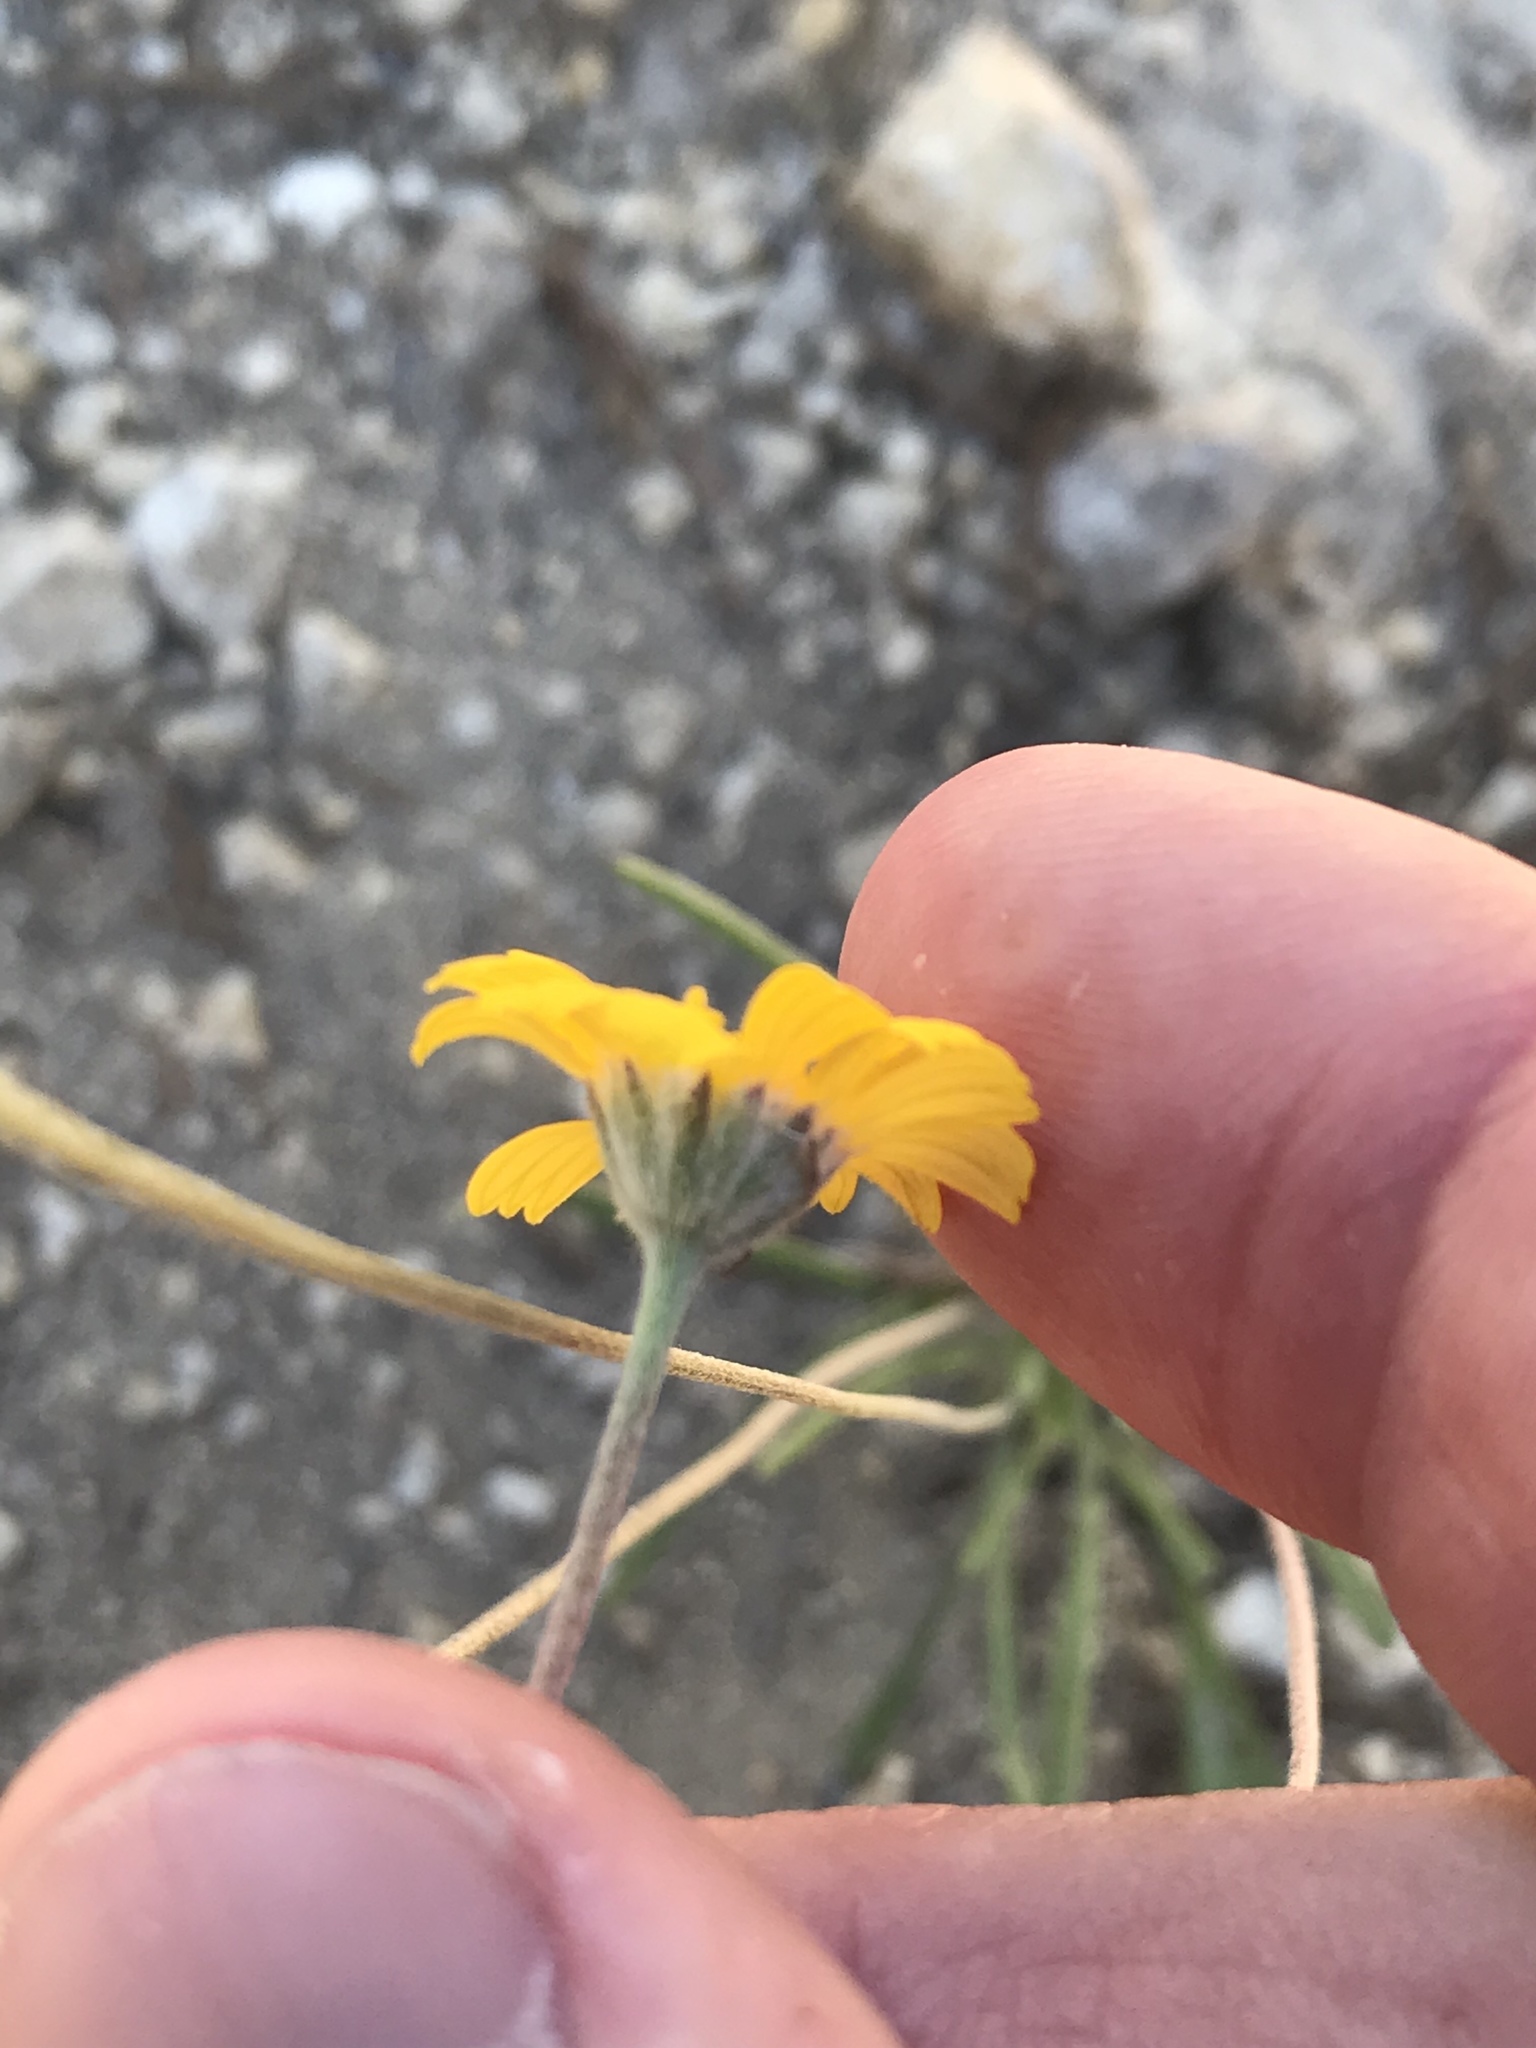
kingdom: Plantae
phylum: Tracheophyta
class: Magnoliopsida
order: Asterales
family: Asteraceae
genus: Tetraneuris
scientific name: Tetraneuris scaposa
